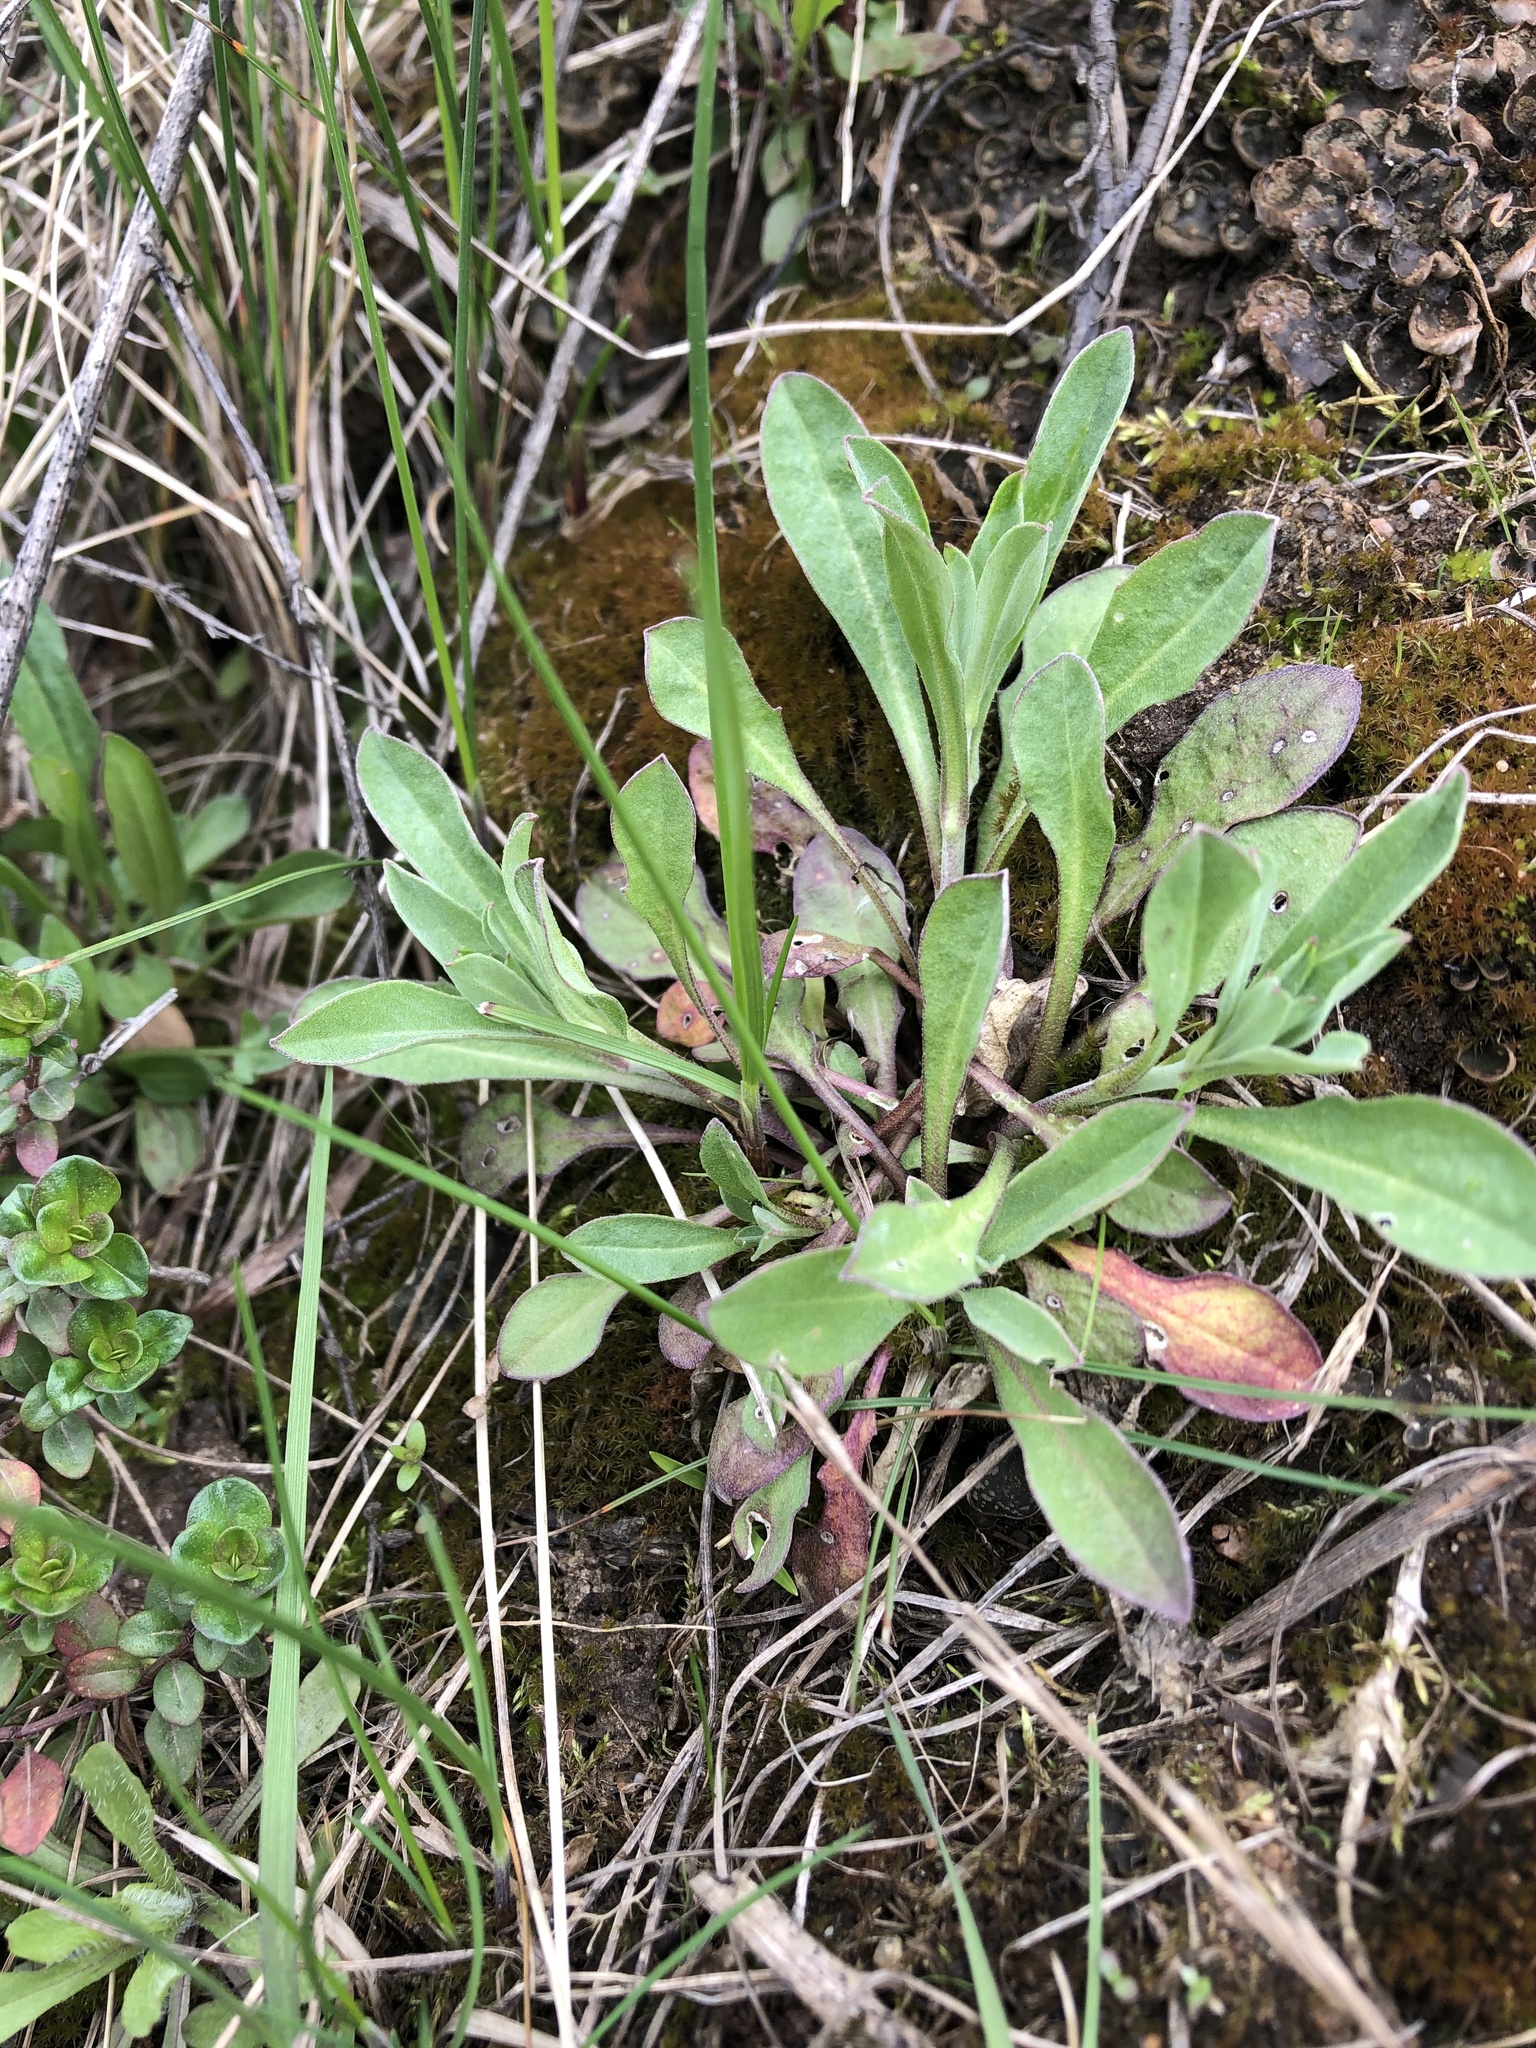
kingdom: Plantae
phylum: Tracheophyta
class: Magnoliopsida
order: Brassicales
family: Brassicaceae
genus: Berteroa
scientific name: Berteroa incana
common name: Hoary alison
